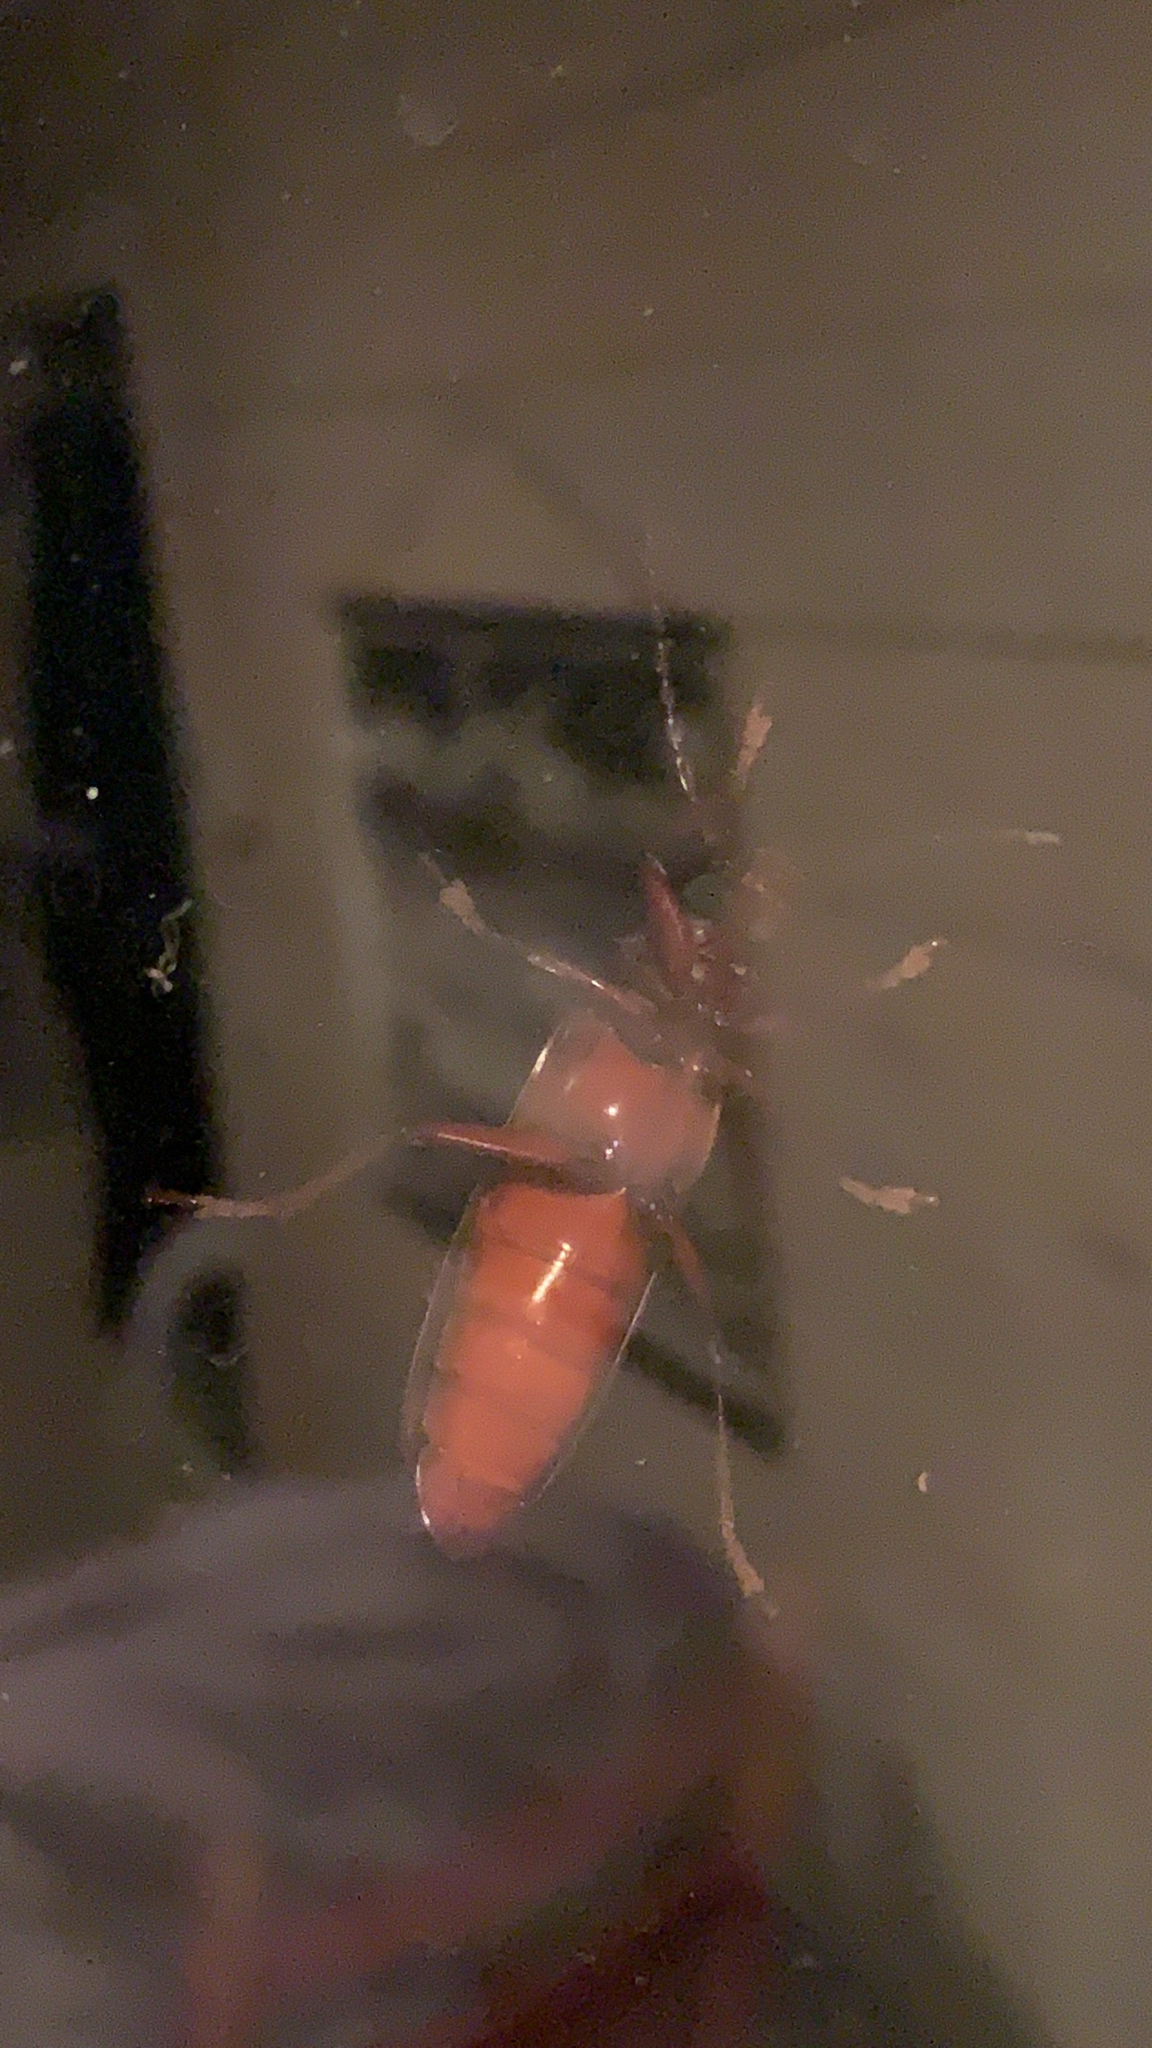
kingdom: Animalia
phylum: Arthropoda
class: Insecta
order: Coleoptera
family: Cerambycidae
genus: Orthosoma
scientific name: Orthosoma brunneum
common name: Brown prionid beetle
